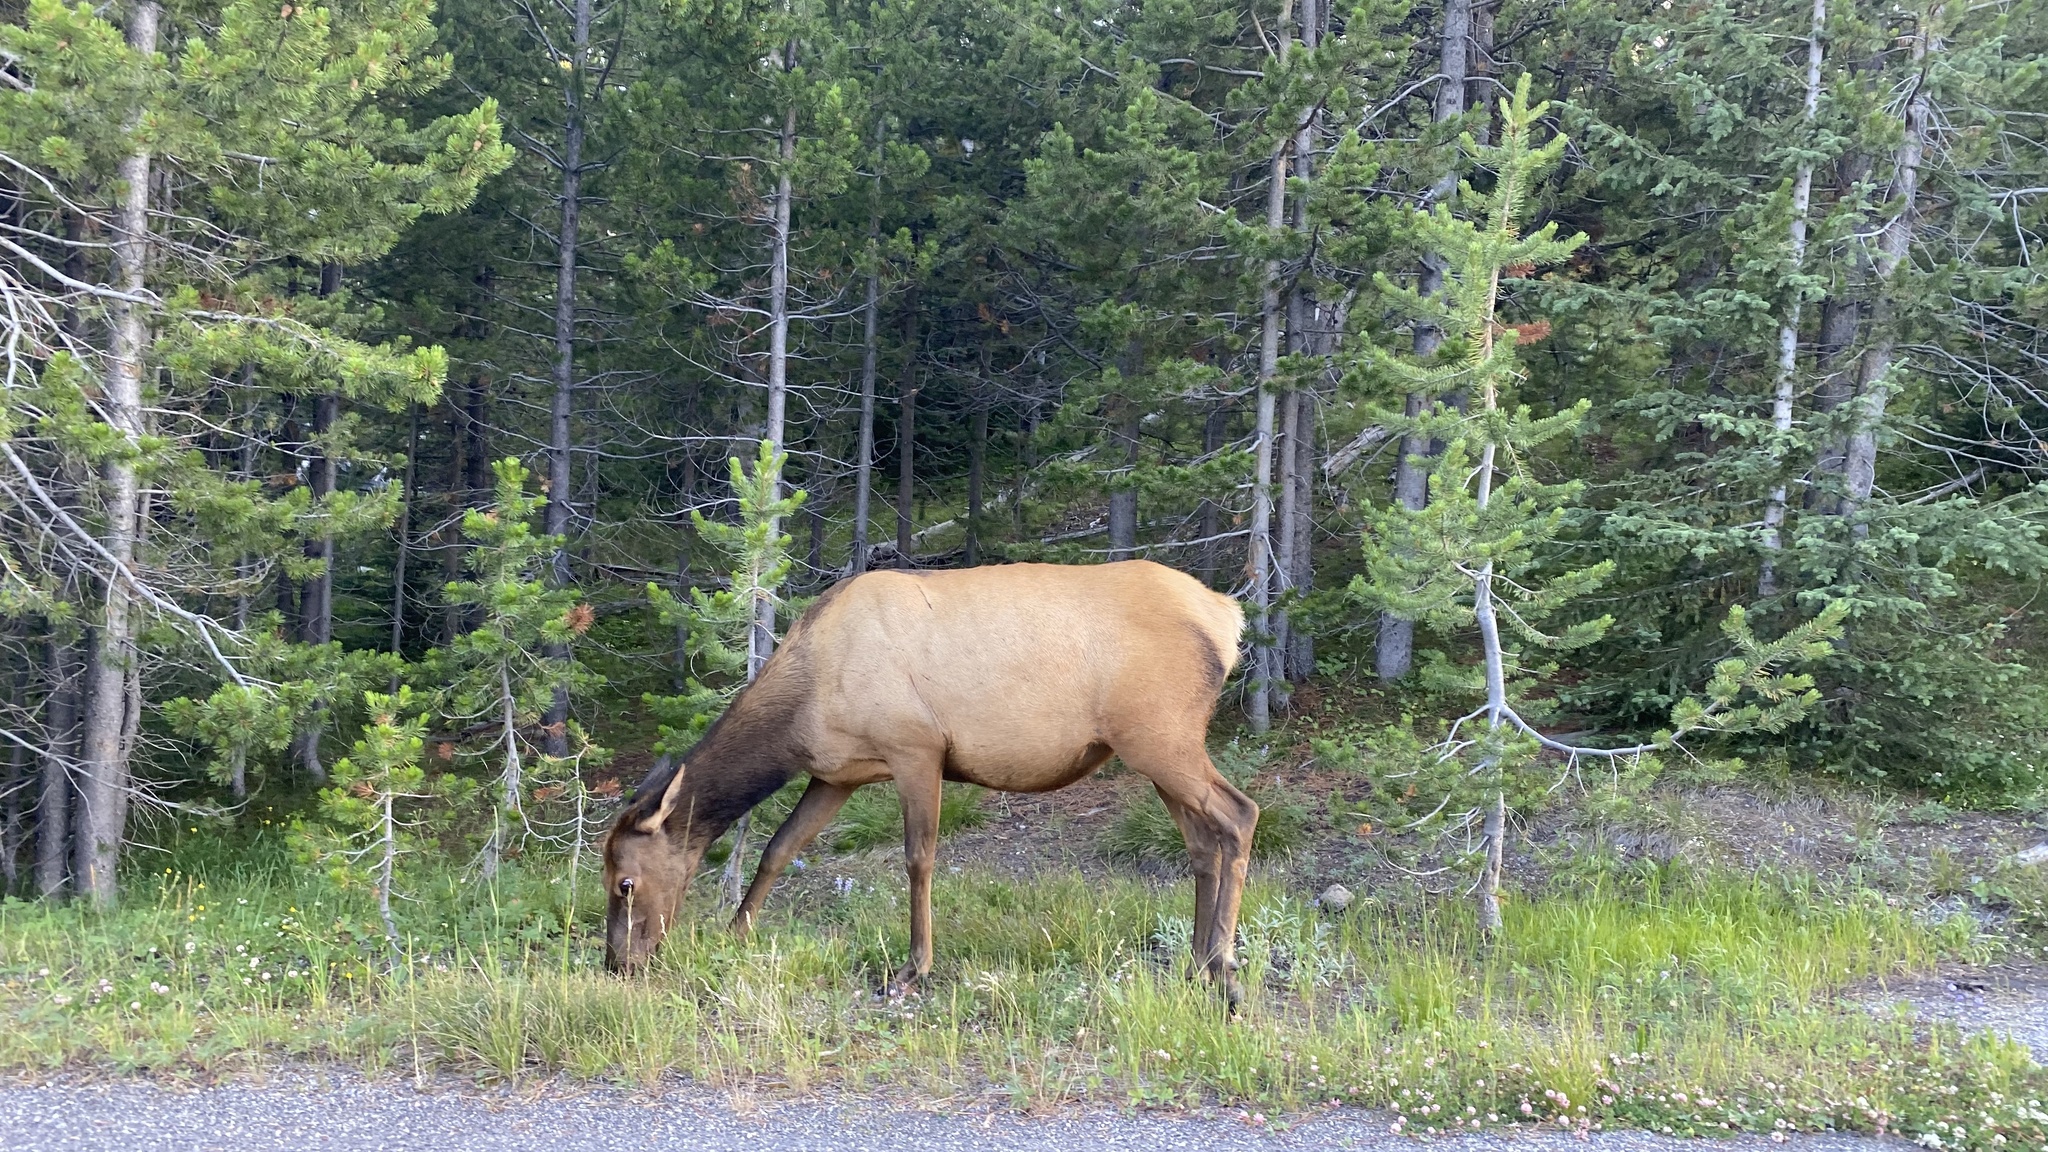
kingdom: Animalia
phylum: Chordata
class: Mammalia
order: Artiodactyla
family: Cervidae
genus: Cervus
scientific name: Cervus elaphus
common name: Red deer
